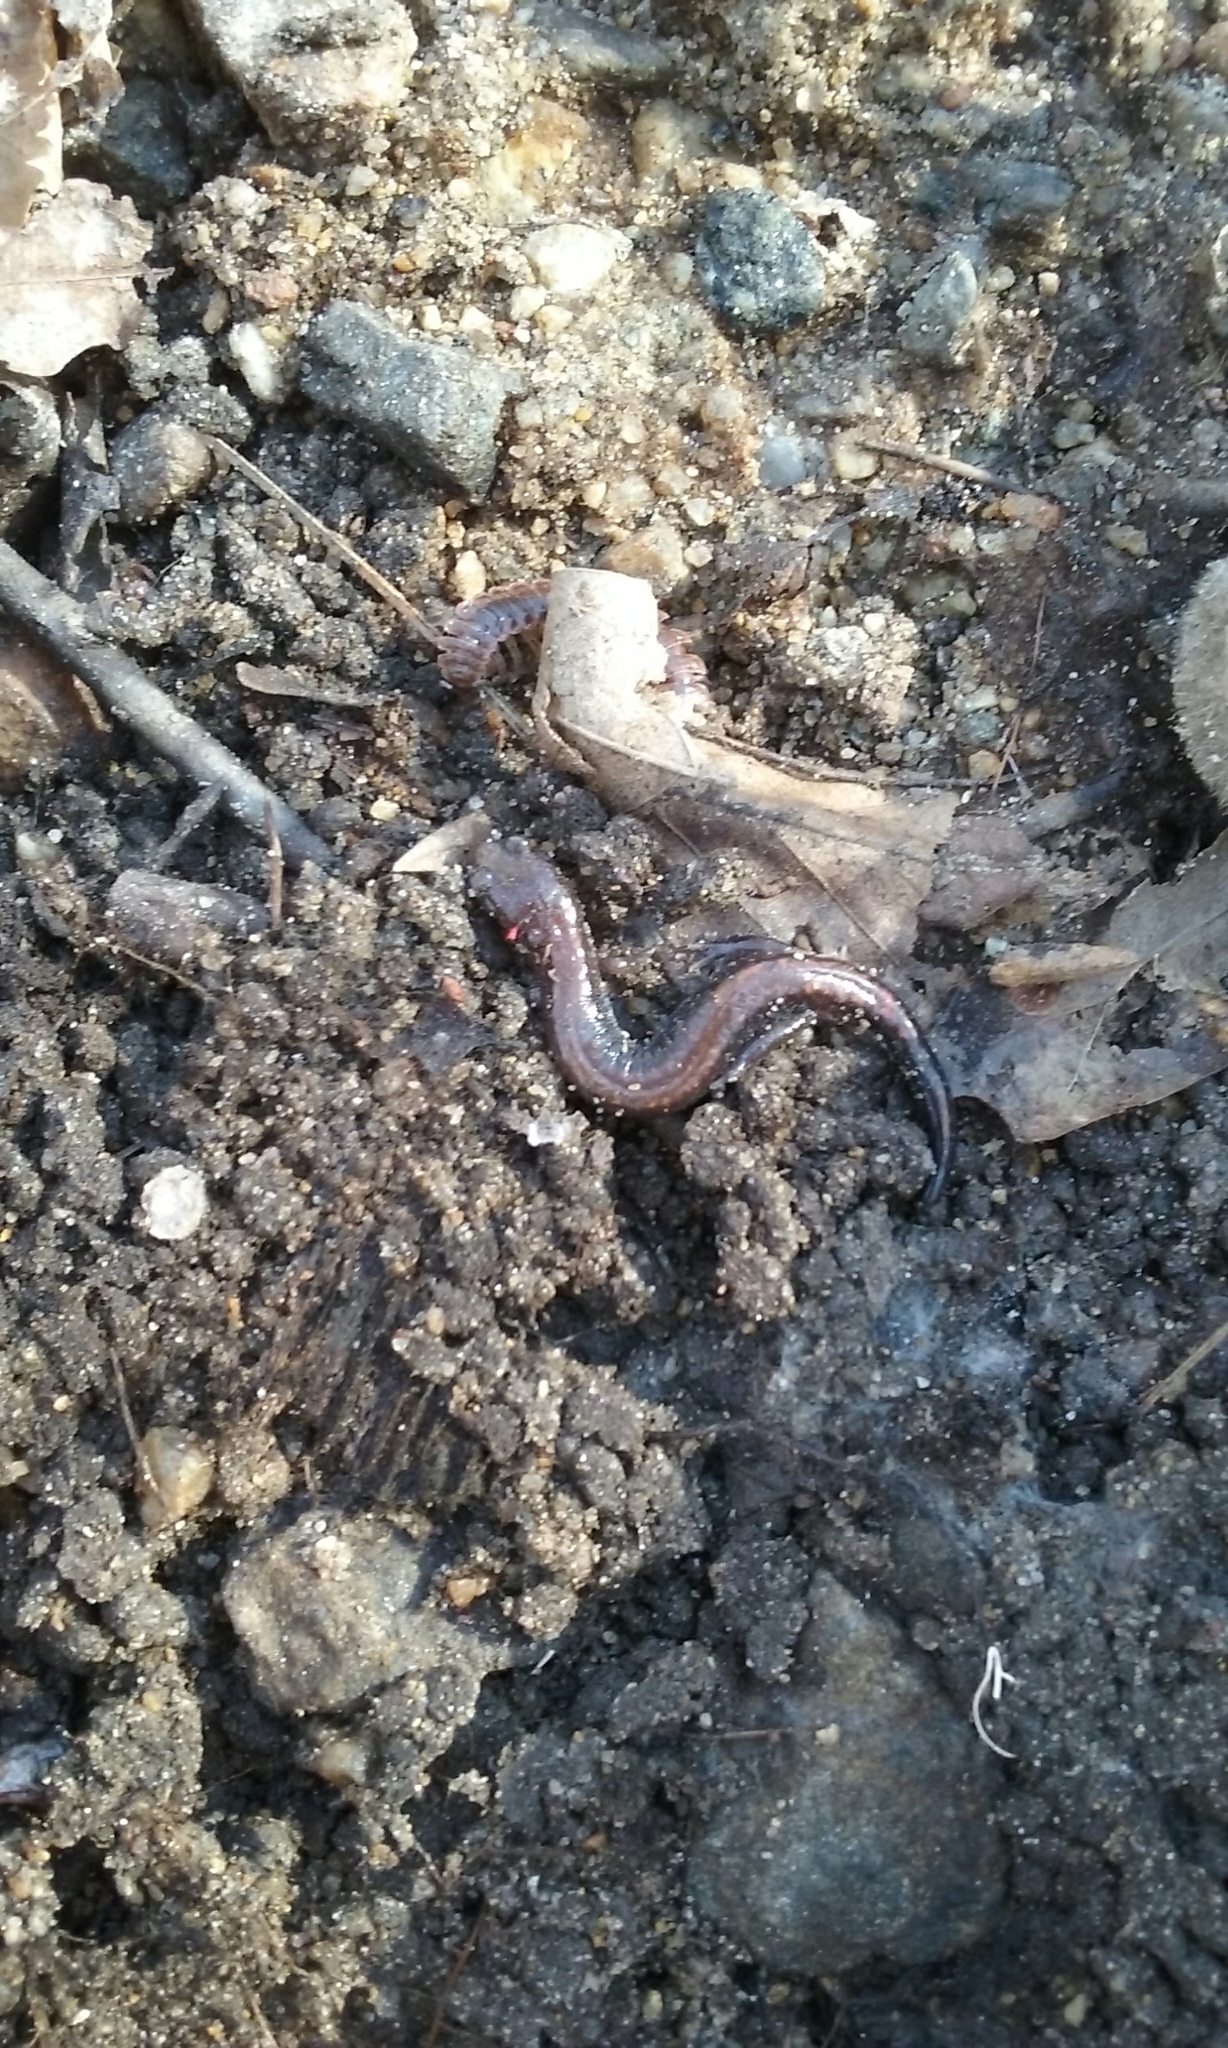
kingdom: Animalia
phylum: Chordata
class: Amphibia
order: Caudata
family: Plethodontidae
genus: Plethodon
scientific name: Plethodon cinereus
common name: Redback salamander
